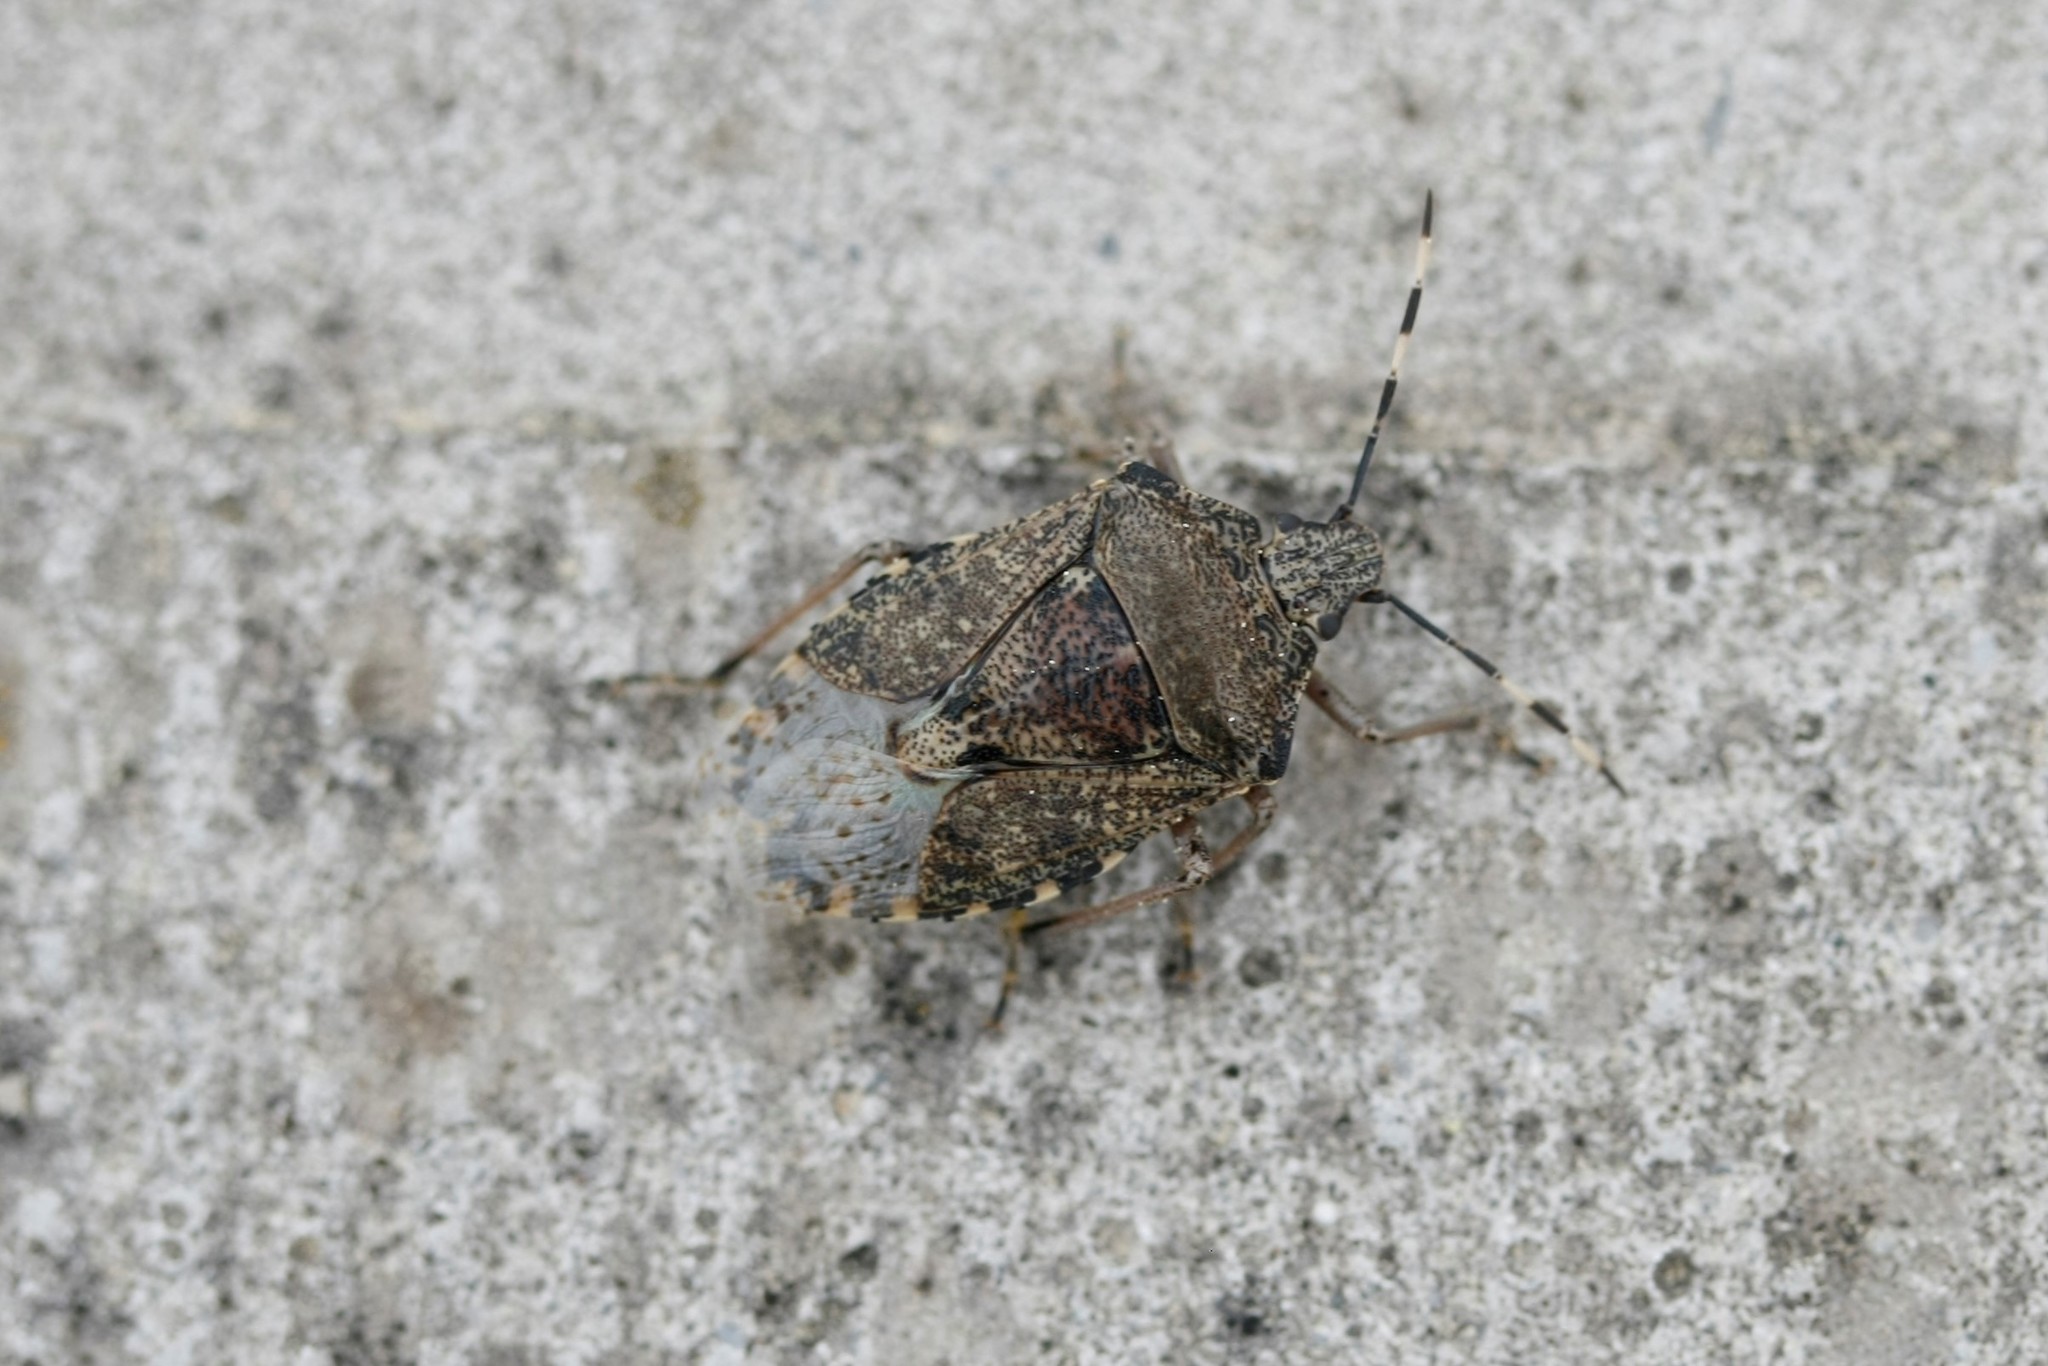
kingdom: Animalia
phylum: Arthropoda
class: Insecta
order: Hemiptera
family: Pentatomidae
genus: Rhaphigaster
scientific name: Rhaphigaster nebulosa
